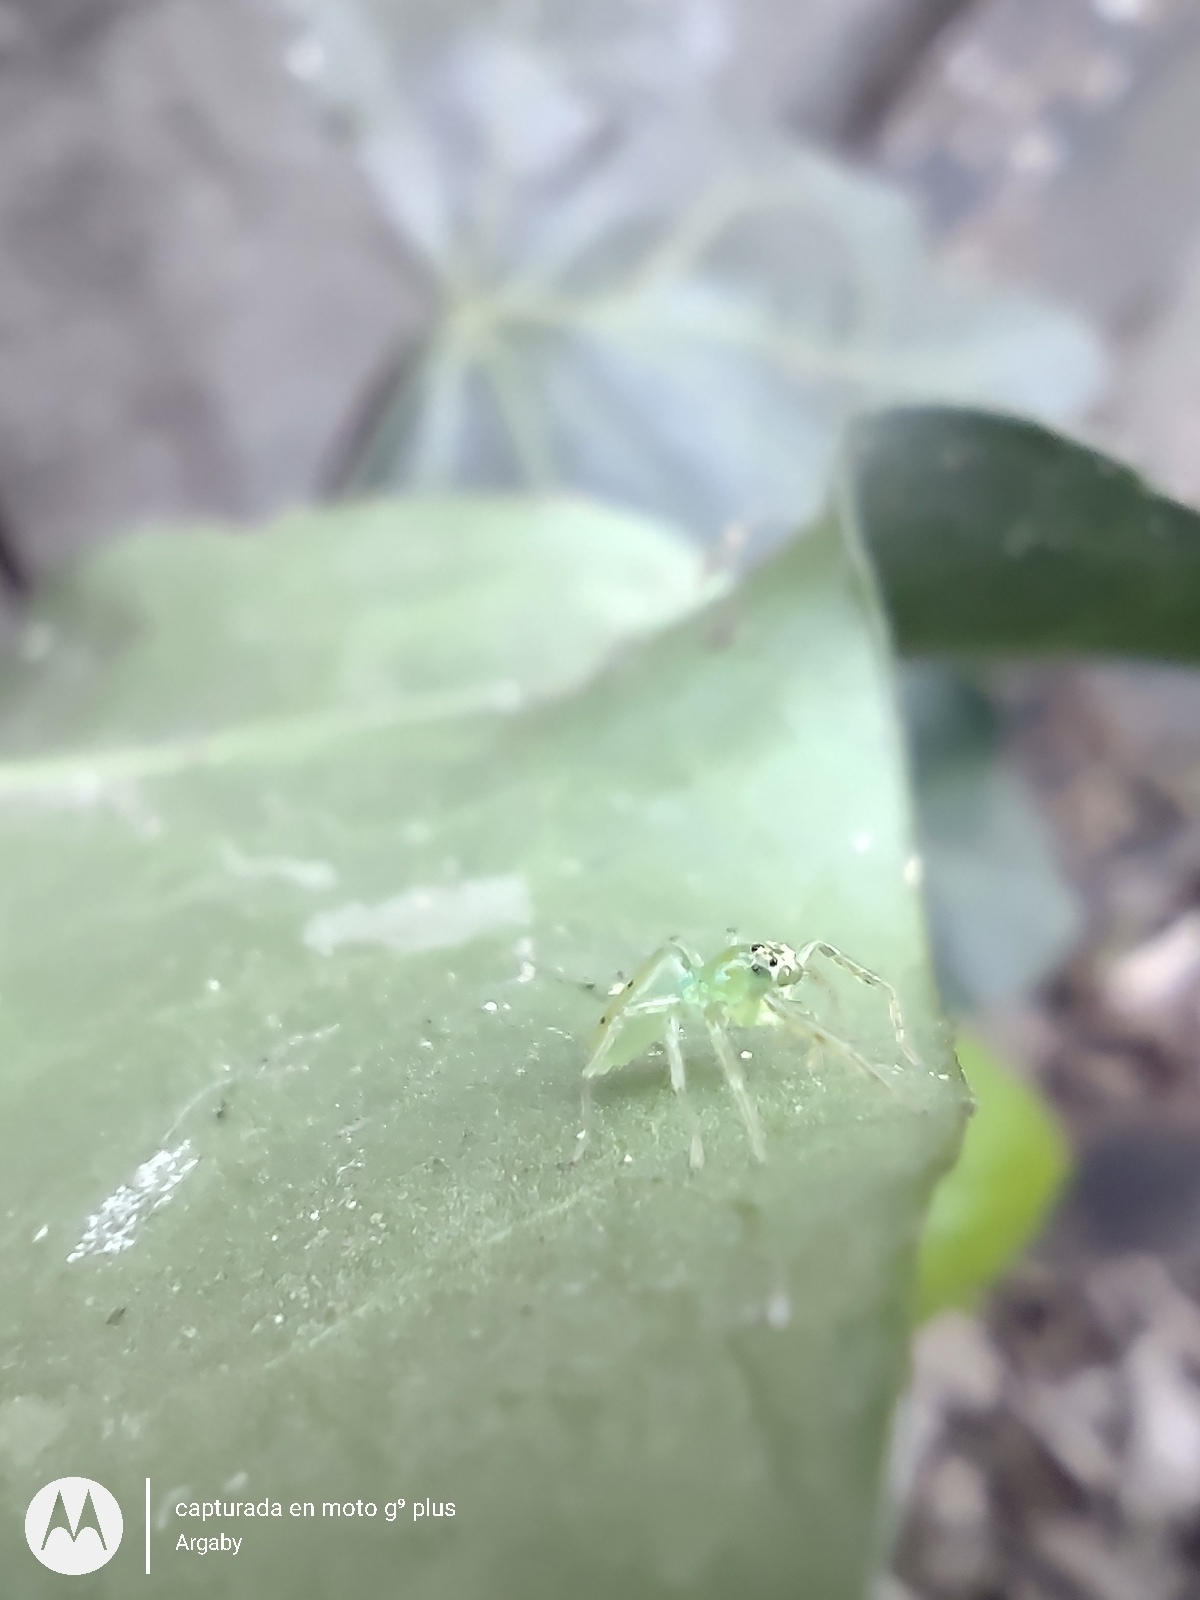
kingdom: Animalia
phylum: Arthropoda
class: Arachnida
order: Araneae
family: Salticidae
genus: Lyssomanes
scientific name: Lyssomanes pauper
